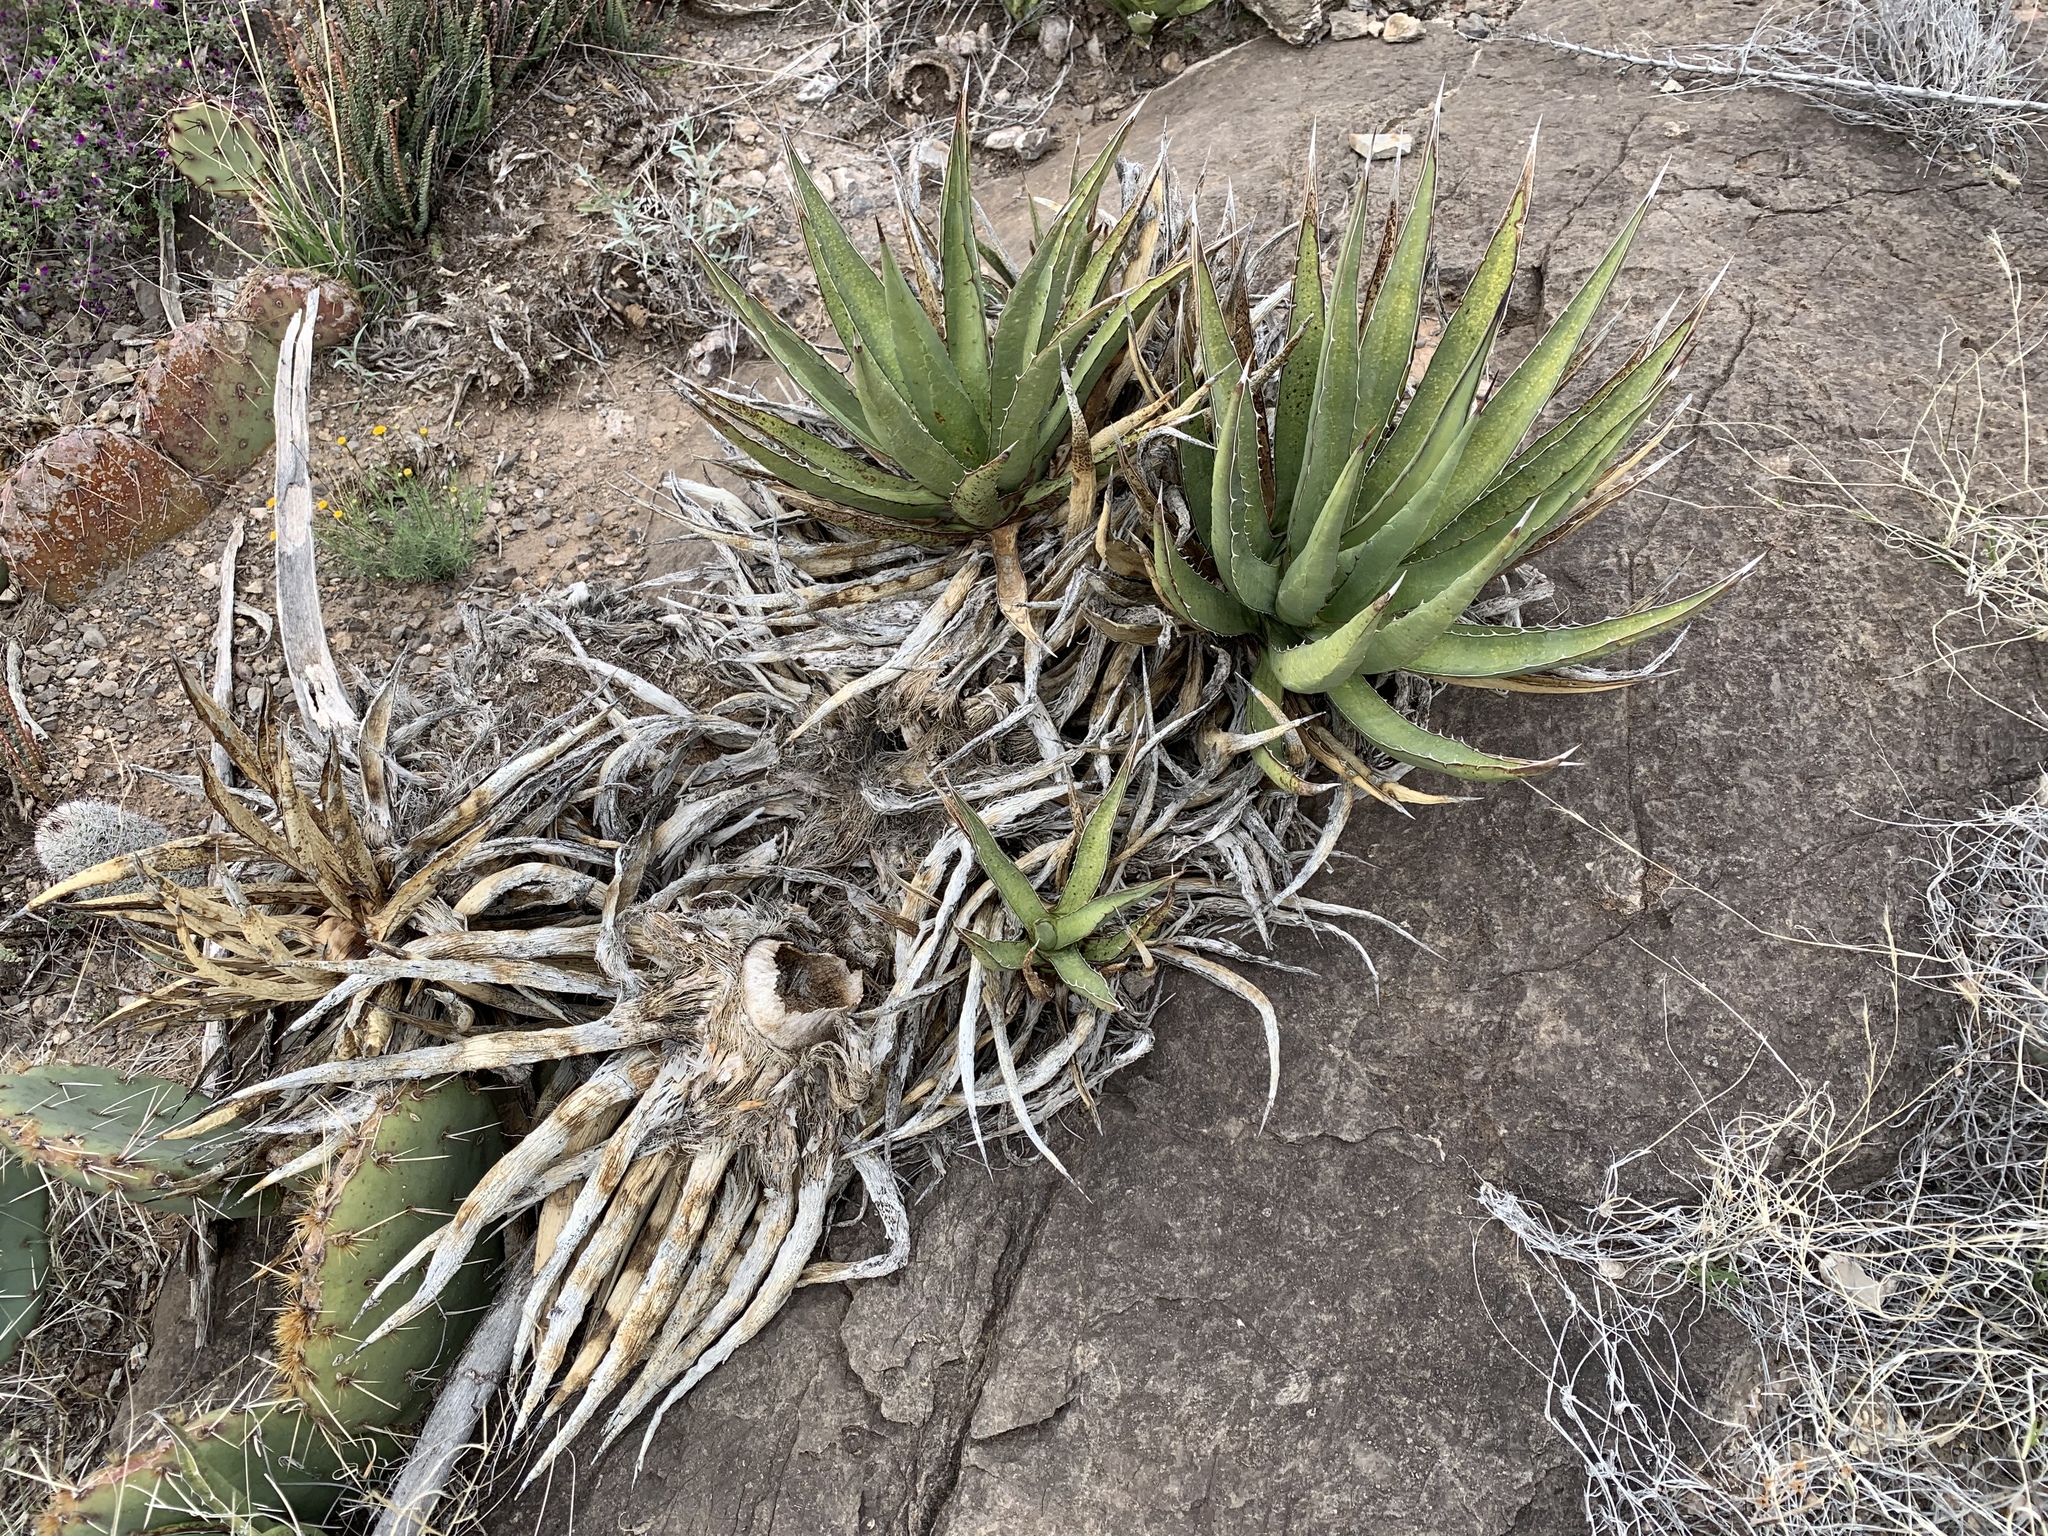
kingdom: Plantae
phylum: Tracheophyta
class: Liliopsida
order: Asparagales
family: Asparagaceae
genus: Agave
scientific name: Agave lechuguilla
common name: Lecheguilla agave
